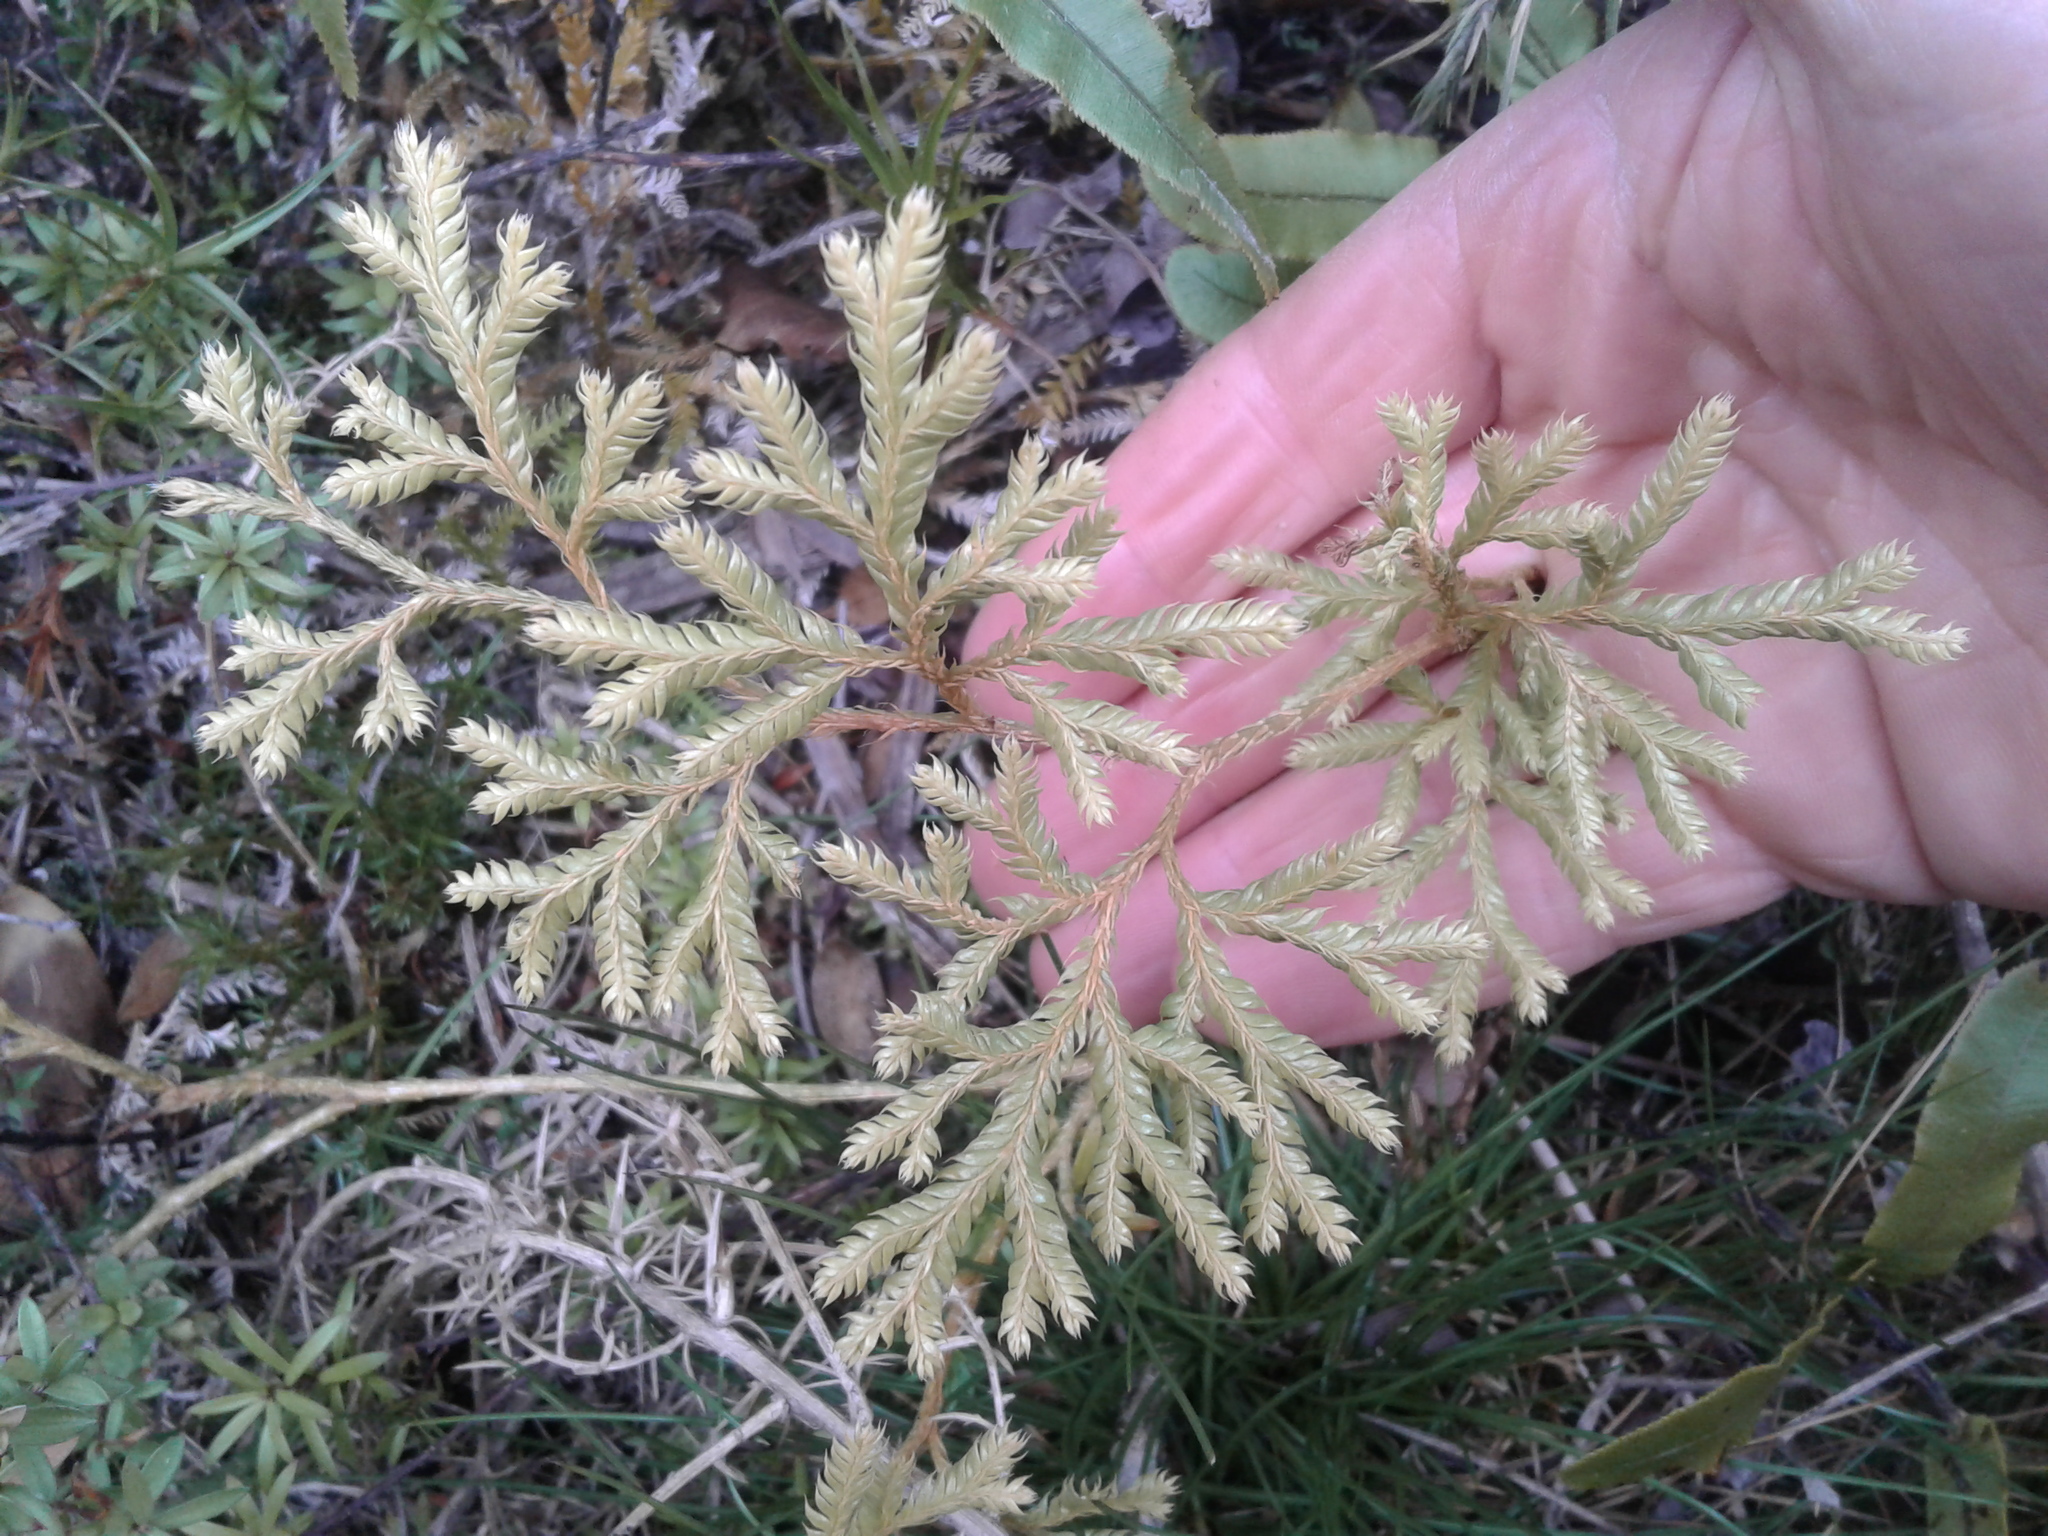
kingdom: Plantae
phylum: Tracheophyta
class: Lycopodiopsida
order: Lycopodiales
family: Lycopodiaceae
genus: Diphasium
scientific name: Diphasium scariosum
